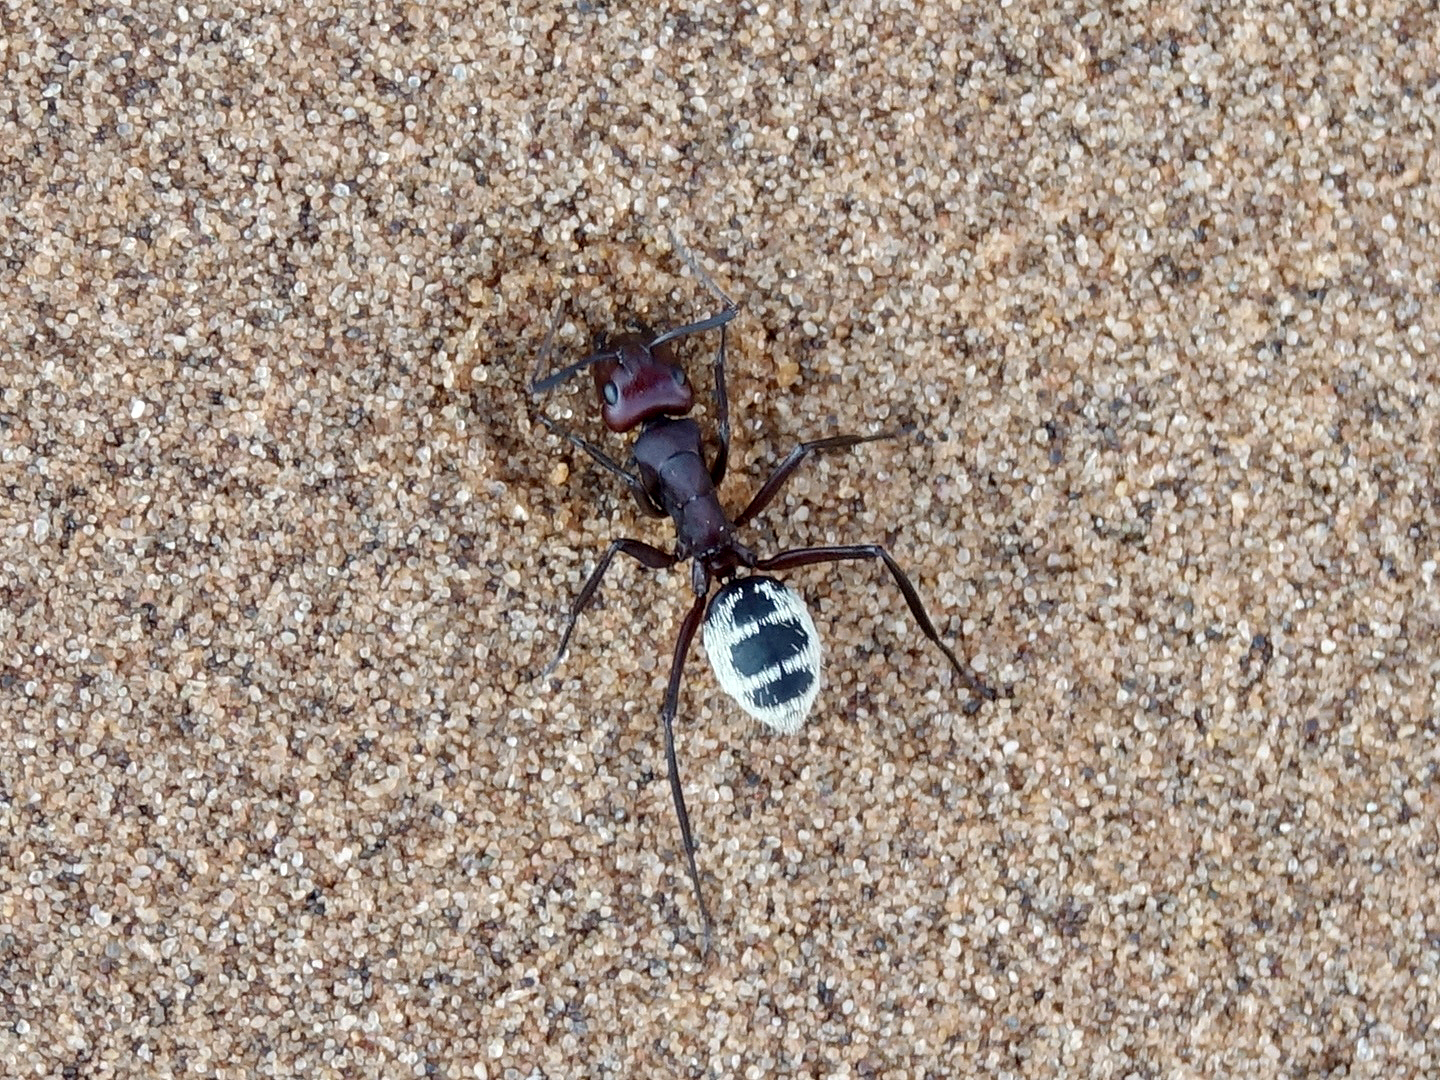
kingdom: Animalia
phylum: Arthropoda
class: Insecta
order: Hymenoptera
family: Formicidae
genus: Camponotus
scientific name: Camponotus detritus
